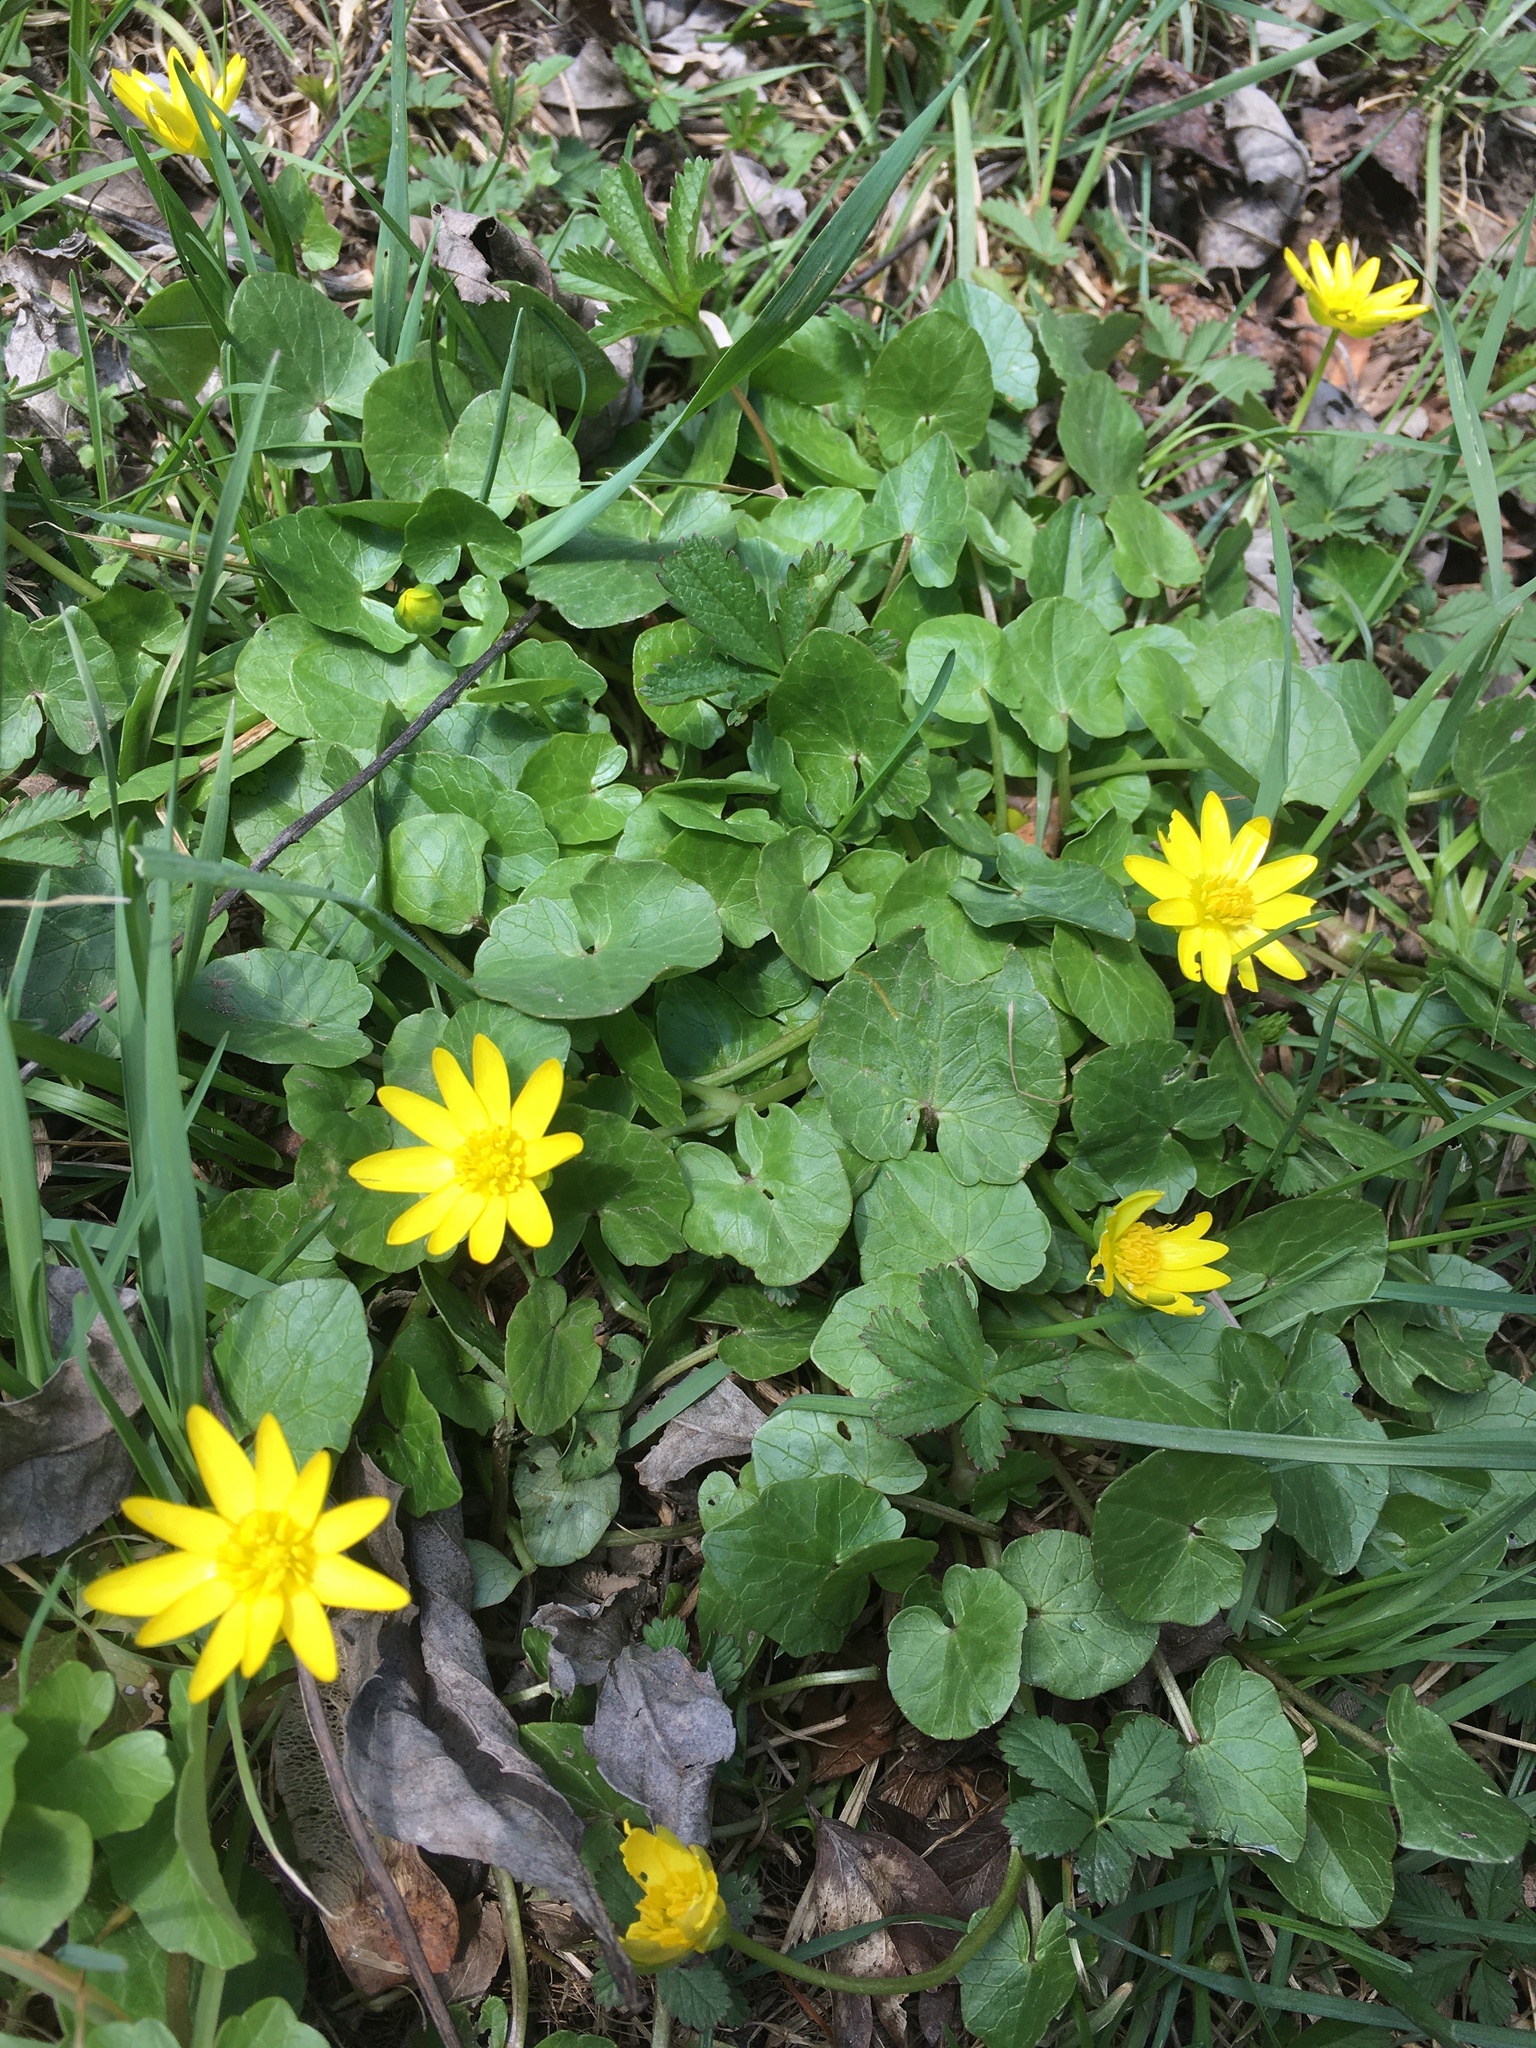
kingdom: Plantae
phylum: Tracheophyta
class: Magnoliopsida
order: Ranunculales
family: Ranunculaceae
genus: Ficaria
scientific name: Ficaria verna
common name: Lesser celandine
